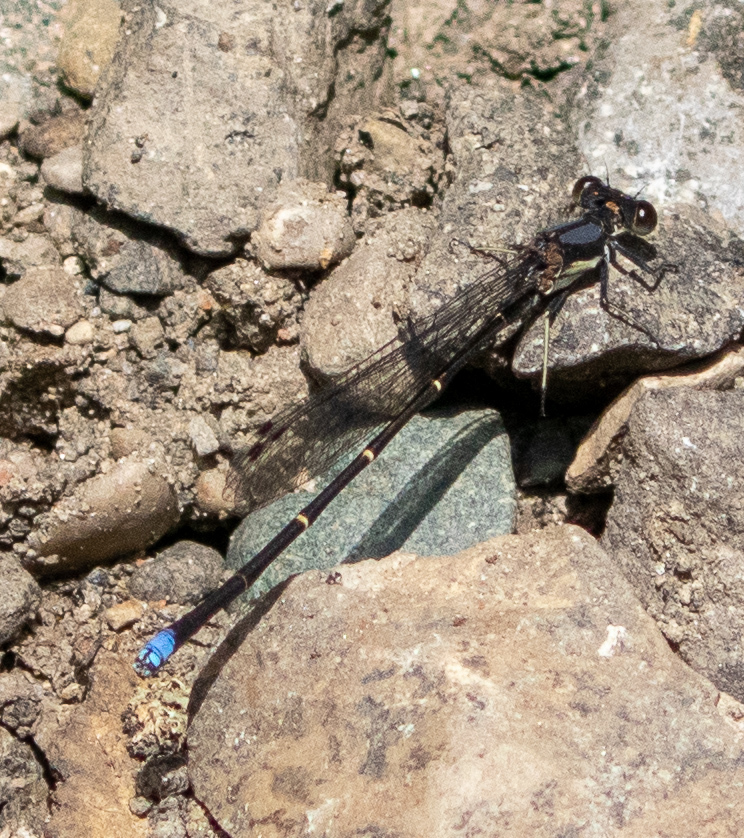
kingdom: Animalia
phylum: Arthropoda
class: Insecta
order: Odonata
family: Coenagrionidae
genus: Argia
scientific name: Argia tibialis
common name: Blue-tipped dancer
